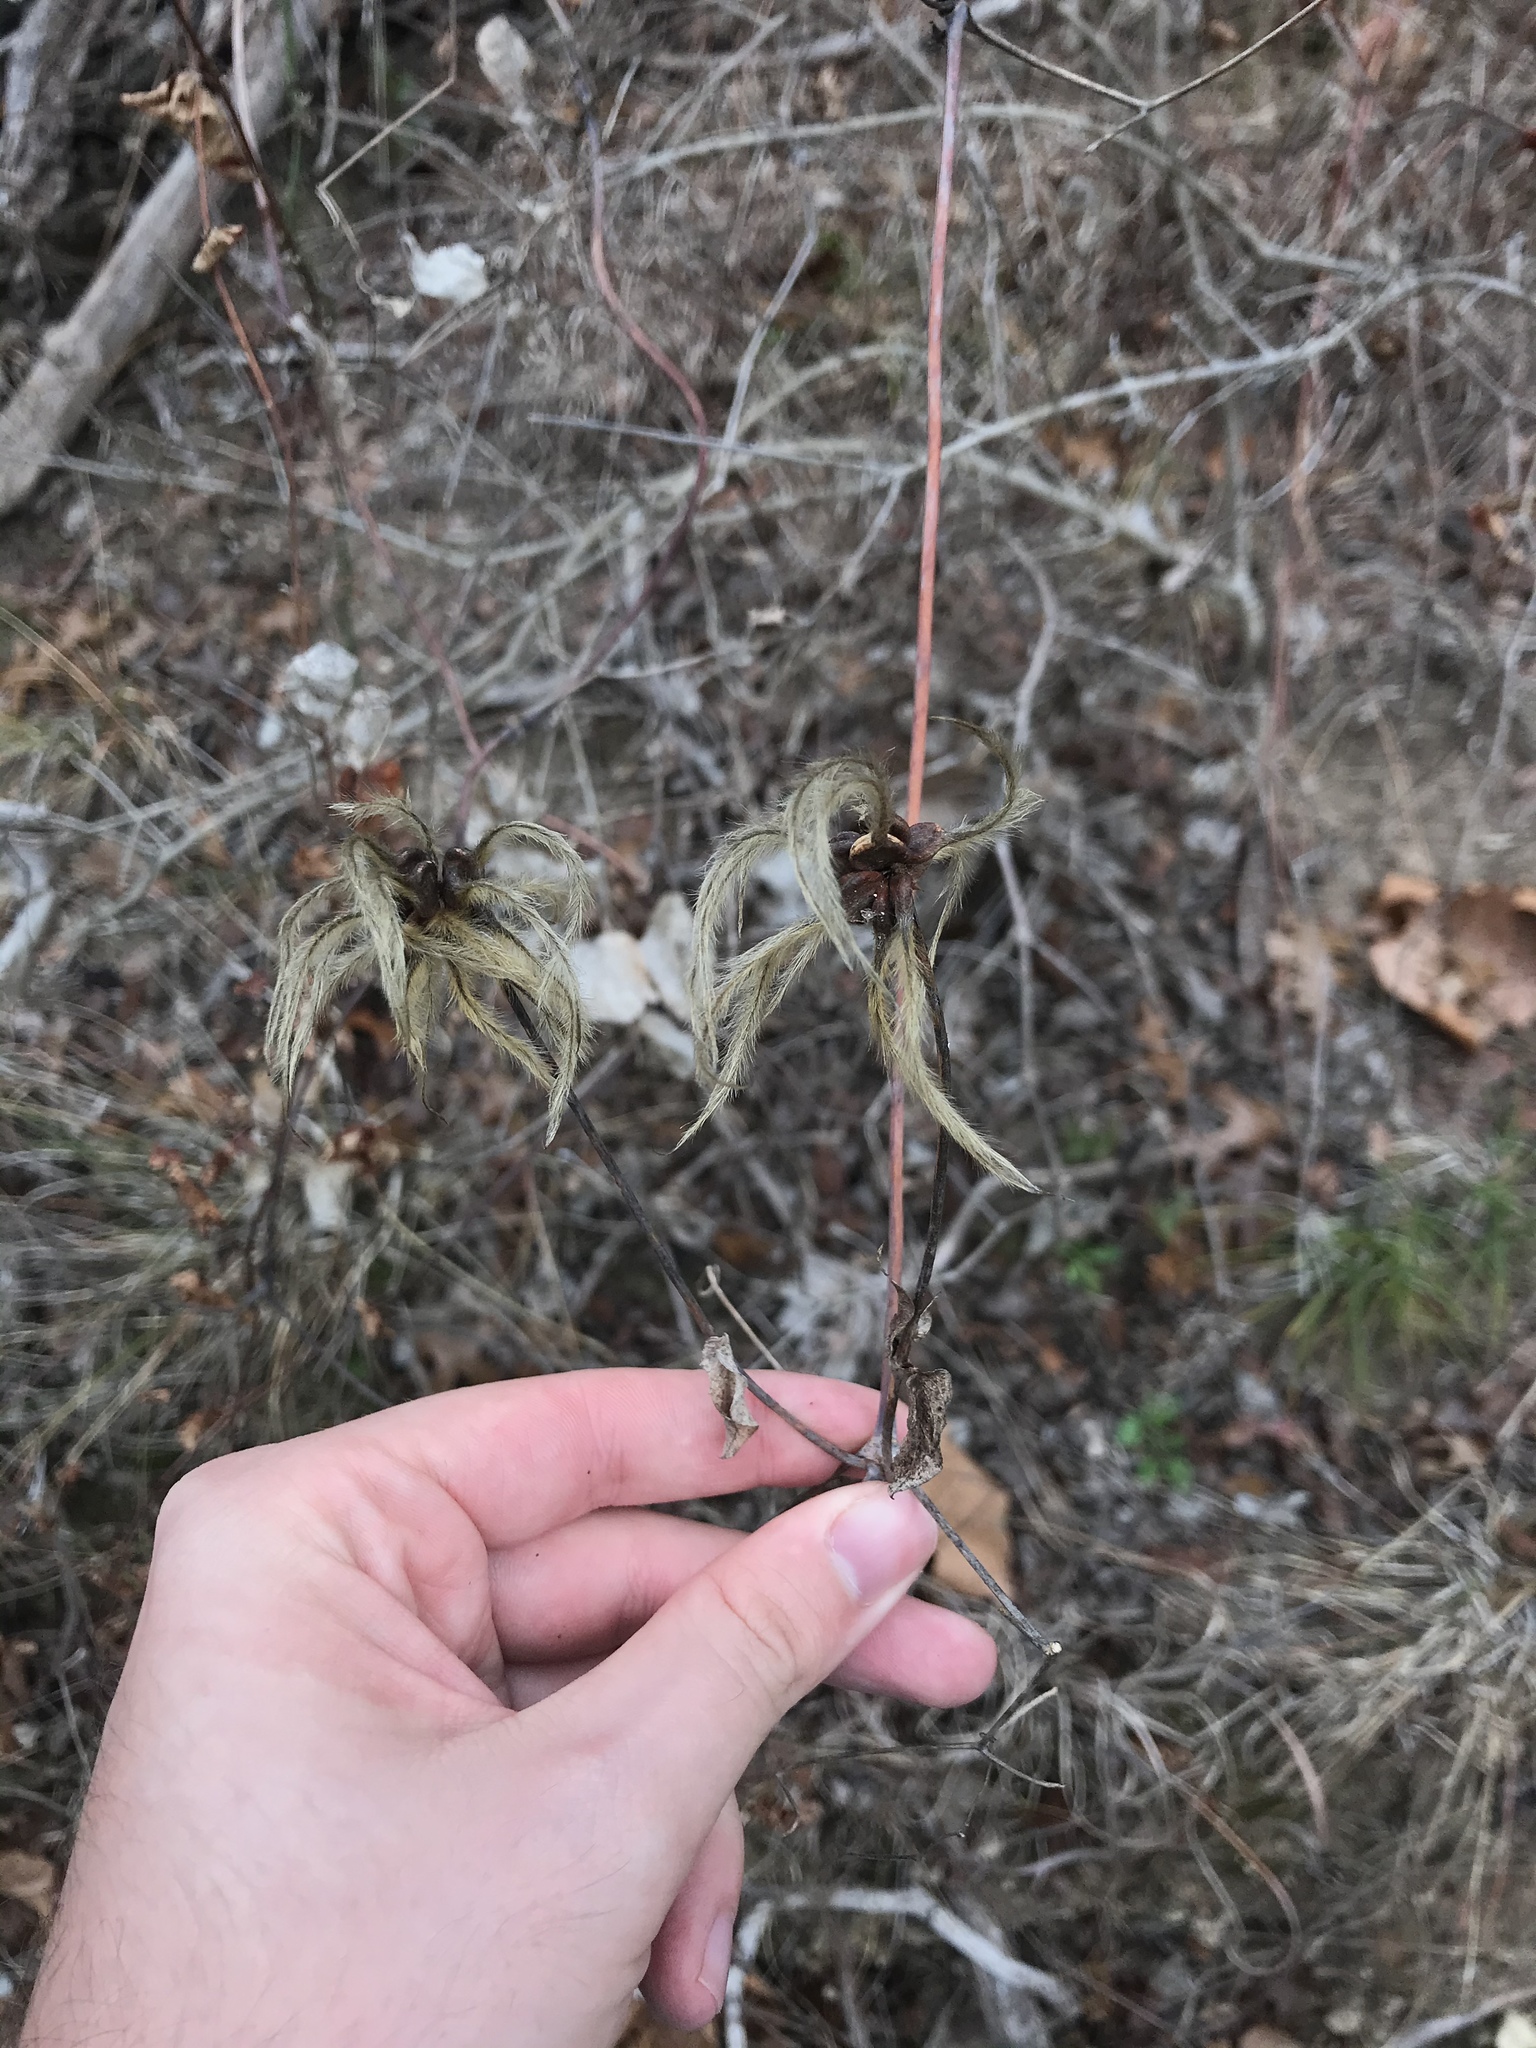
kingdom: Plantae
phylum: Tracheophyta
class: Magnoliopsida
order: Ranunculales
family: Ranunculaceae
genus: Clematis
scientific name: Clematis texensis
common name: Crimson clematis
